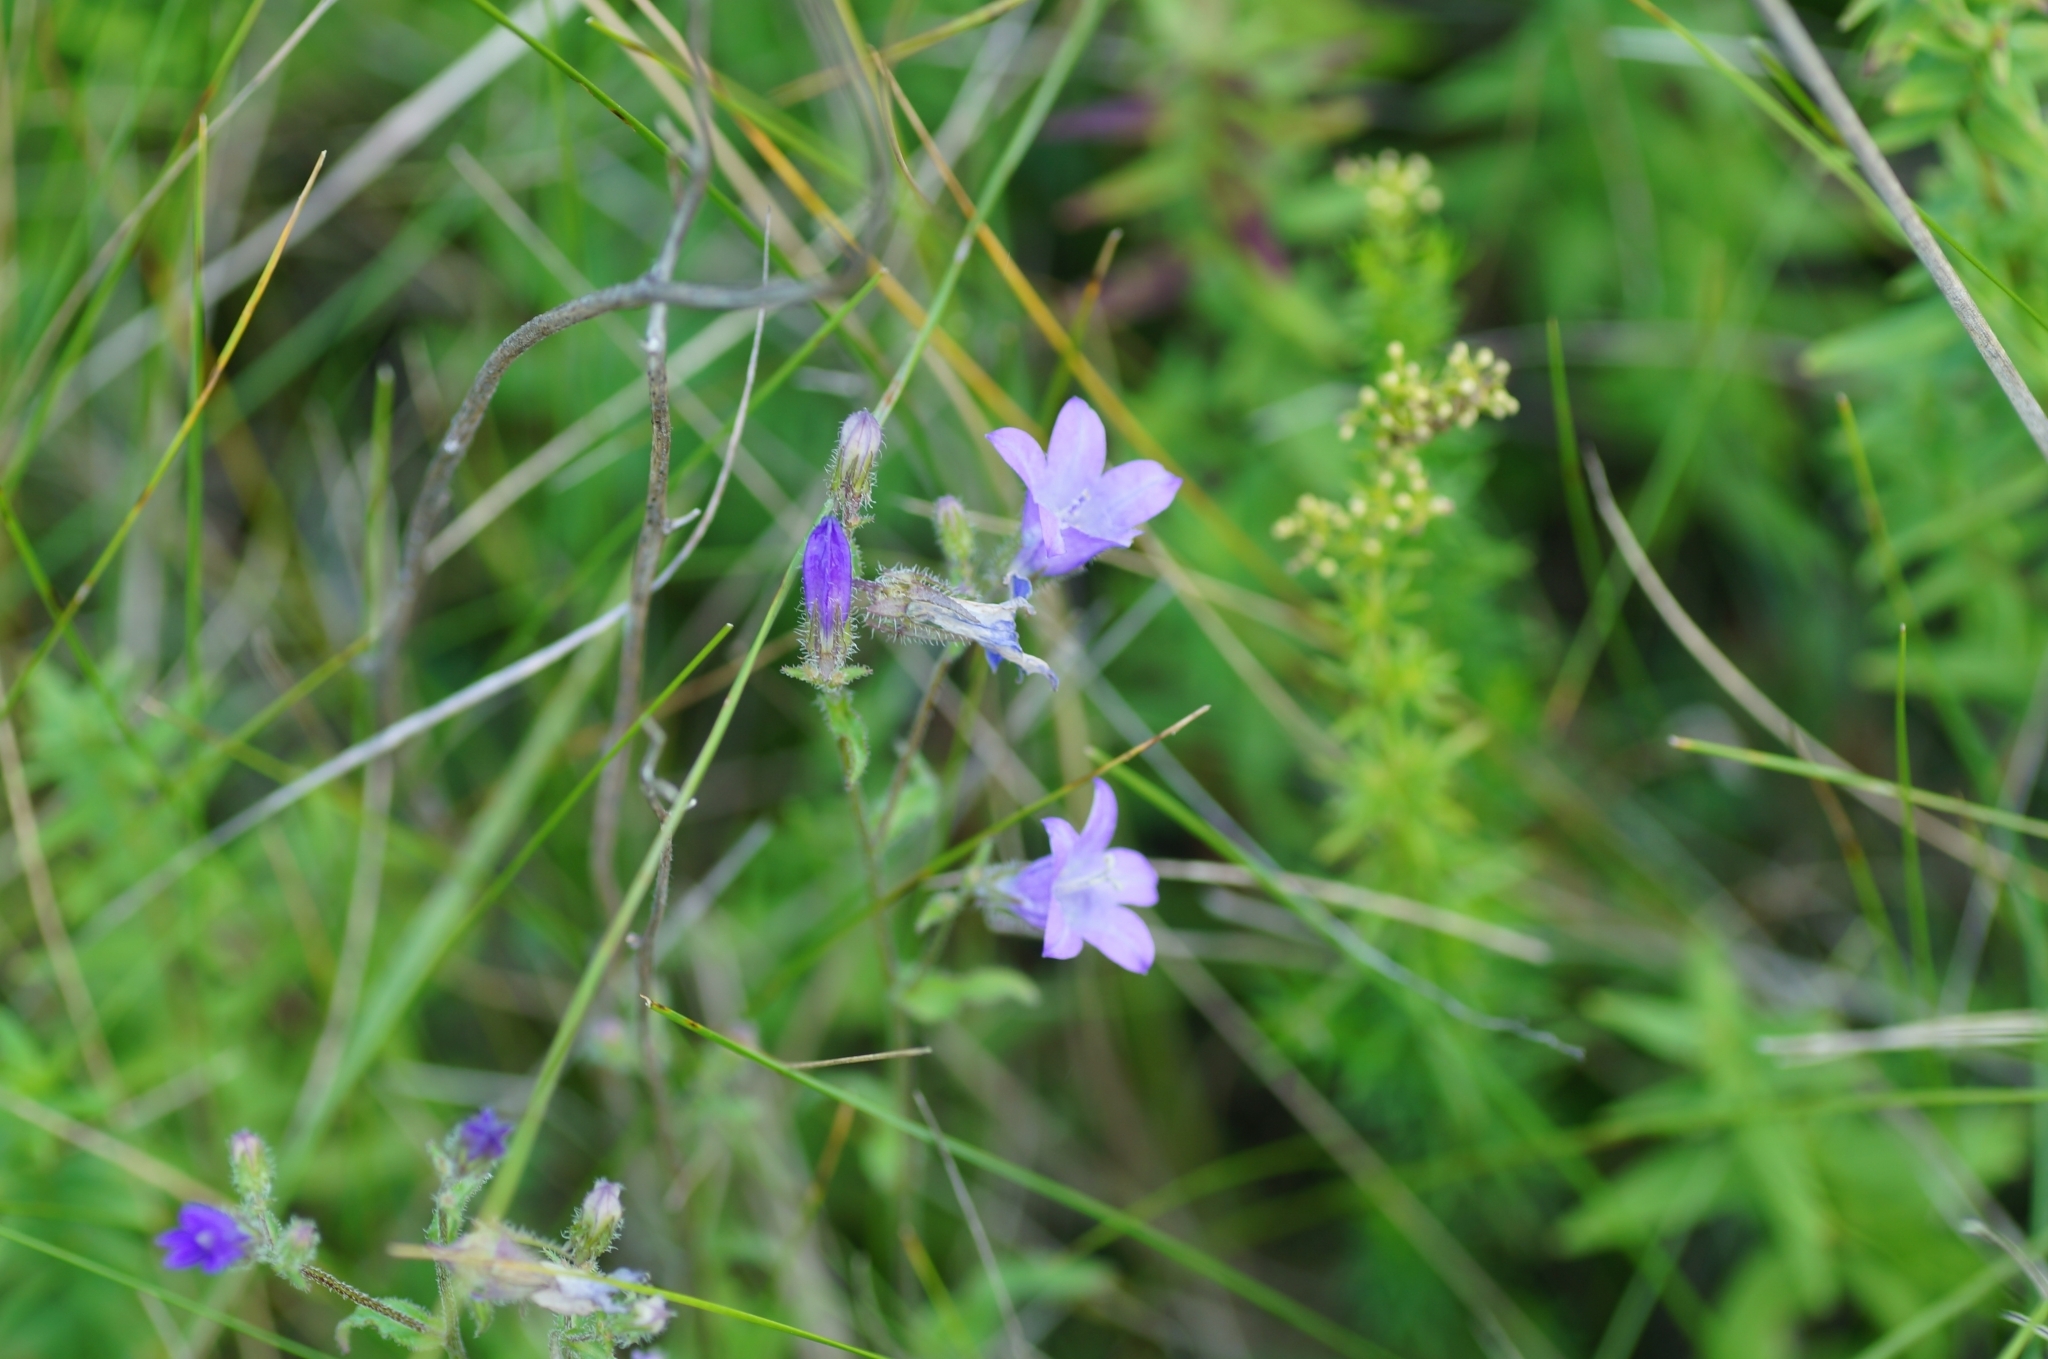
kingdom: Plantae
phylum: Tracheophyta
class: Magnoliopsida
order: Asterales
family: Campanulaceae
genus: Campanula
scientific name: Campanula sibirica
